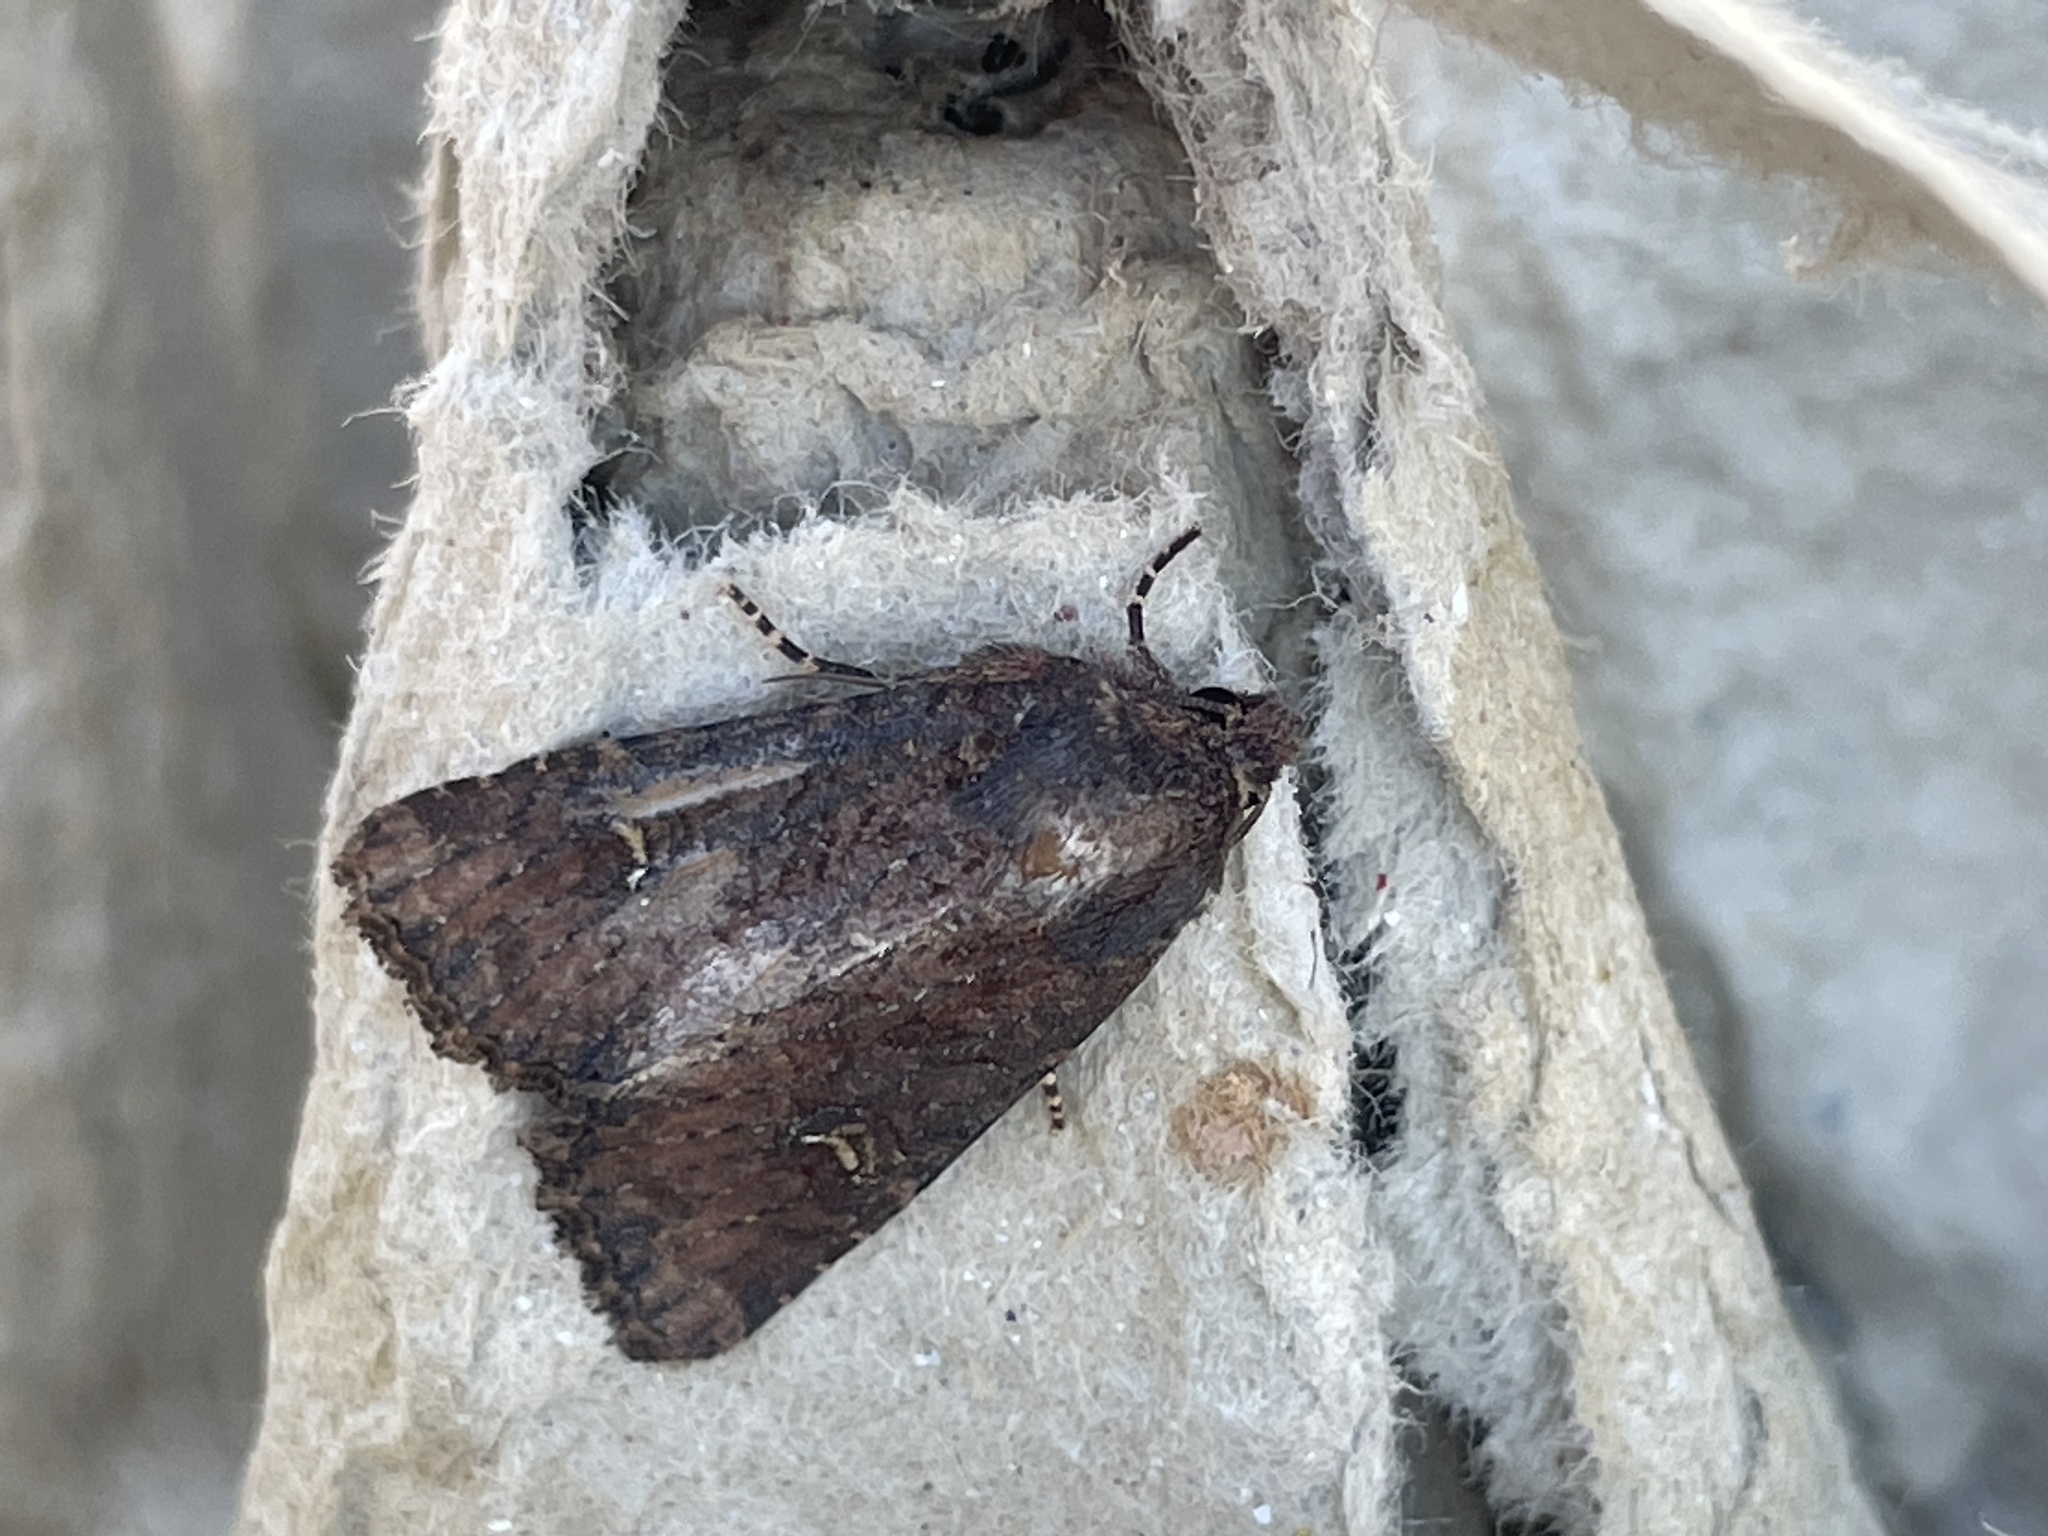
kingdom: Animalia
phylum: Arthropoda
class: Insecta
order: Lepidoptera
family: Noctuidae
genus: Mesapamea
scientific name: Mesapamea
